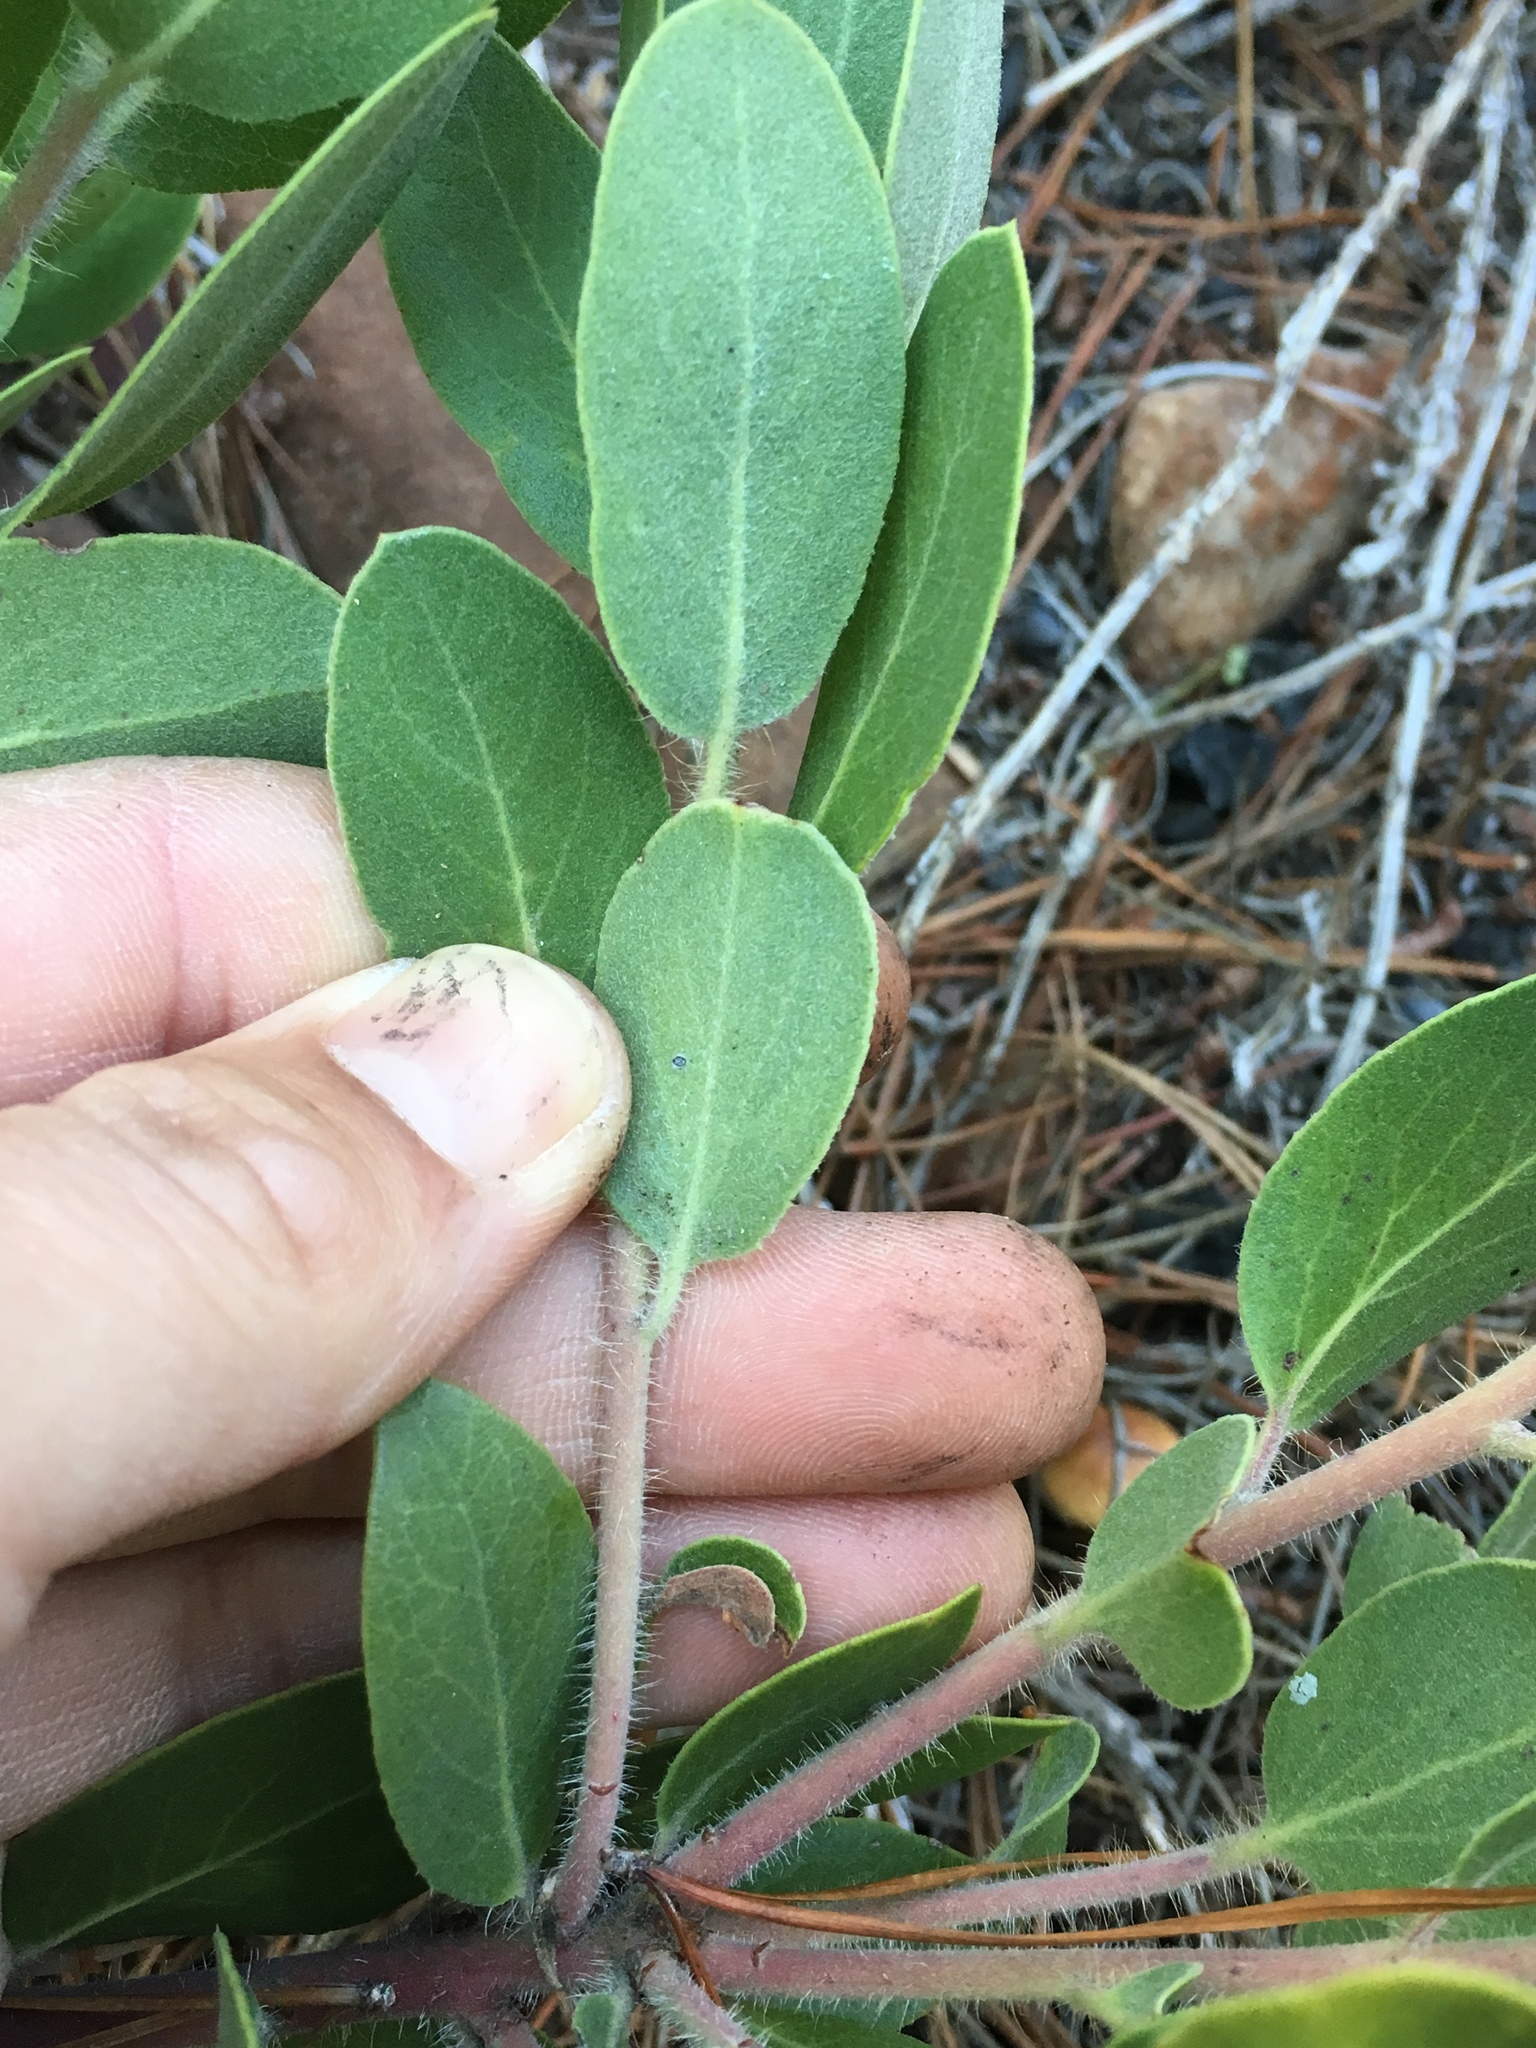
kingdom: Plantae
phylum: Tracheophyta
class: Magnoliopsida
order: Ericales
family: Ericaceae
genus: Arctostaphylos
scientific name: Arctostaphylos glandulosa
